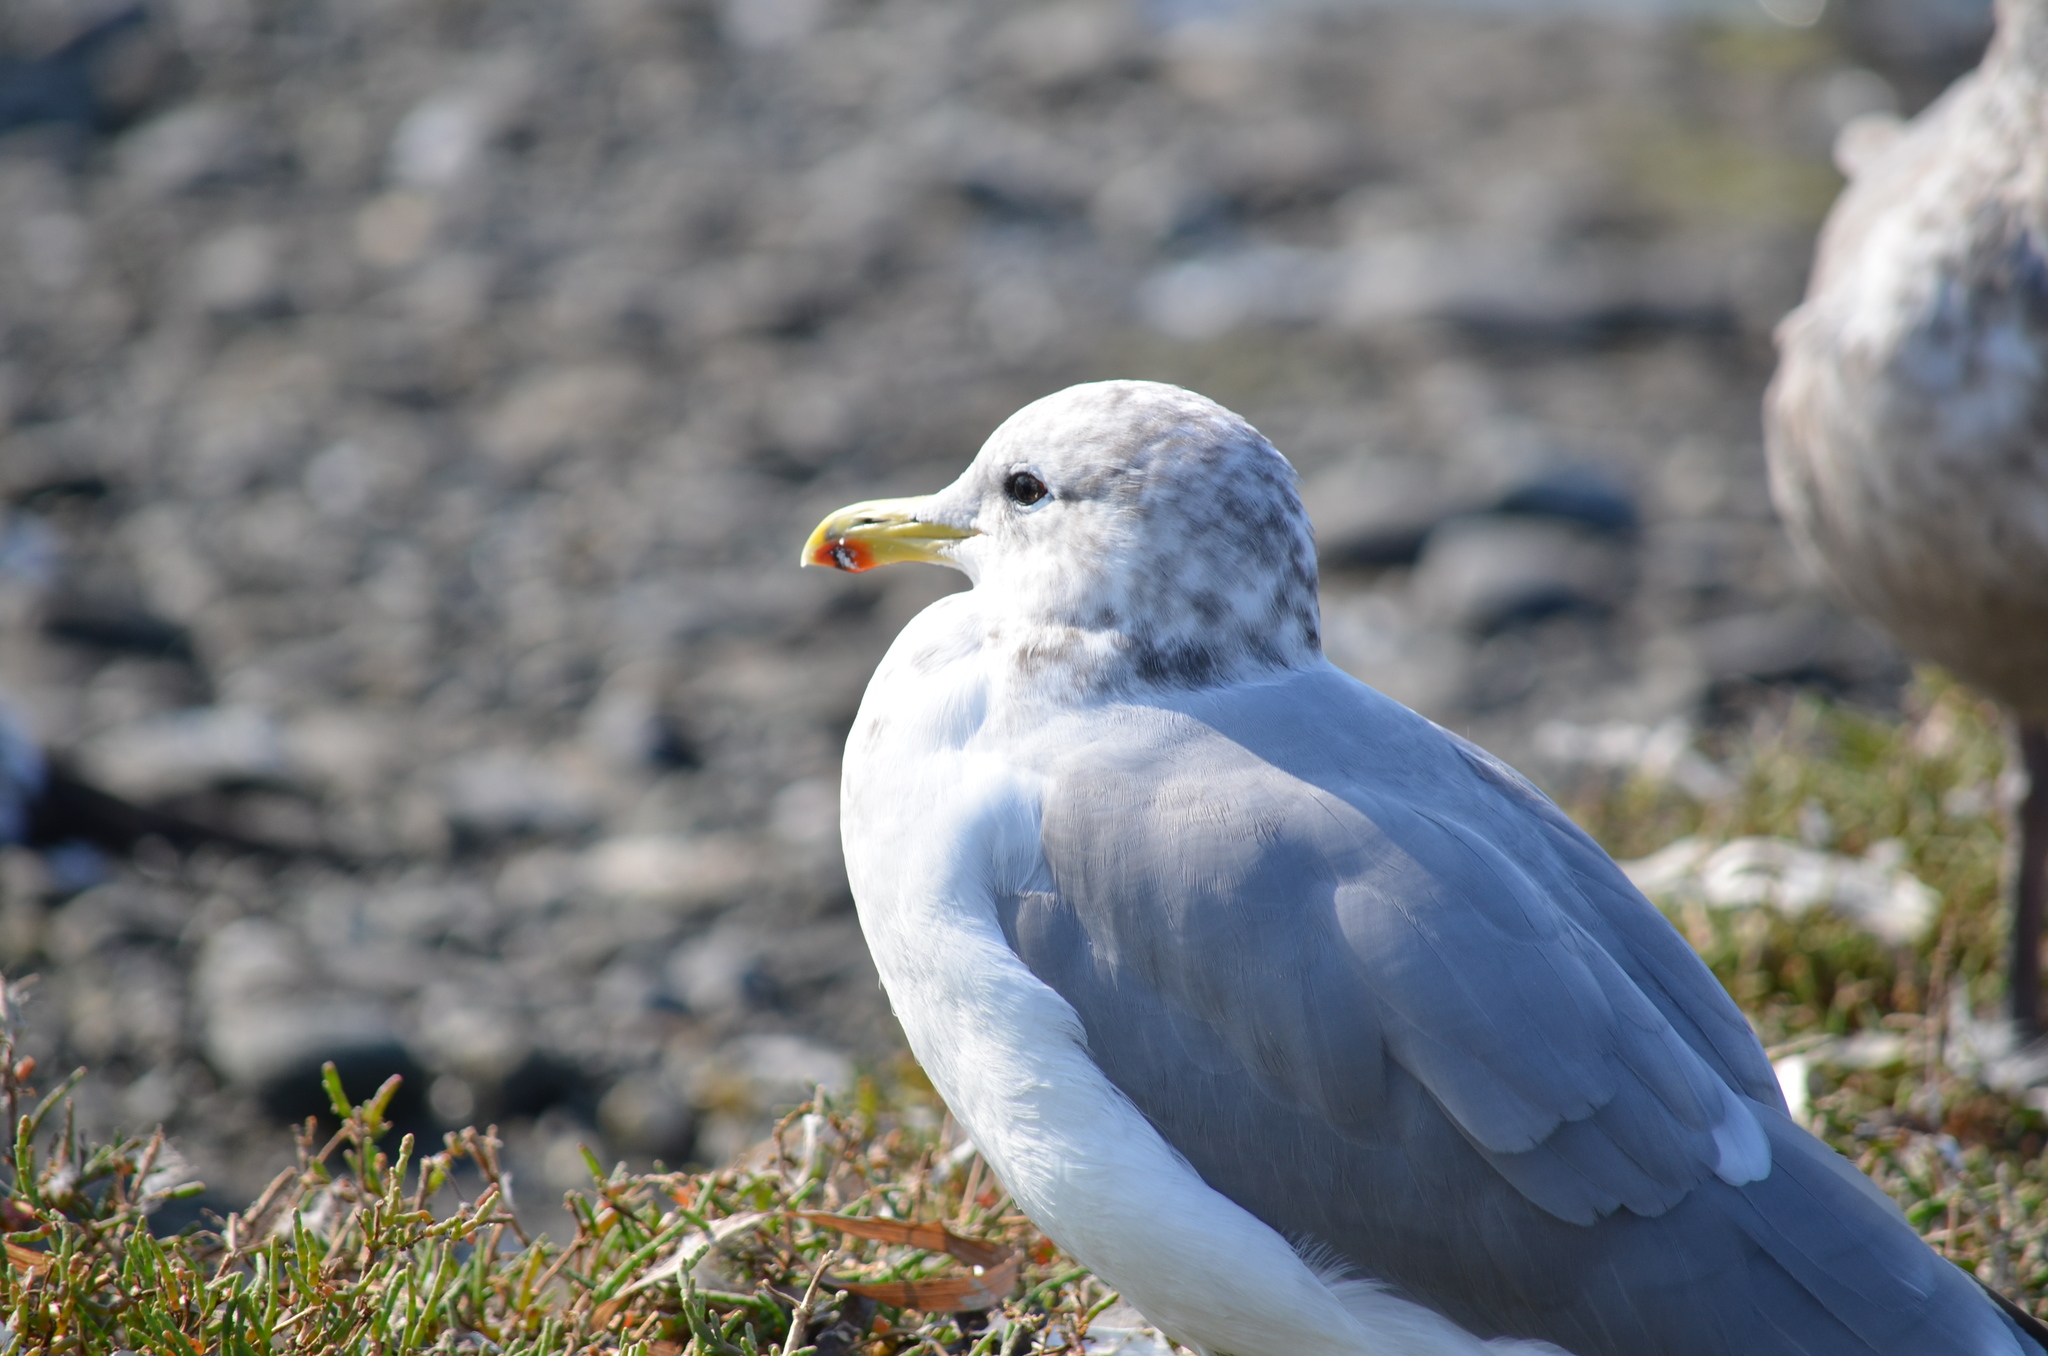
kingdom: Animalia
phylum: Chordata
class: Aves
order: Charadriiformes
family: Laridae
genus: Larus
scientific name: Larus californicus
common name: California gull
